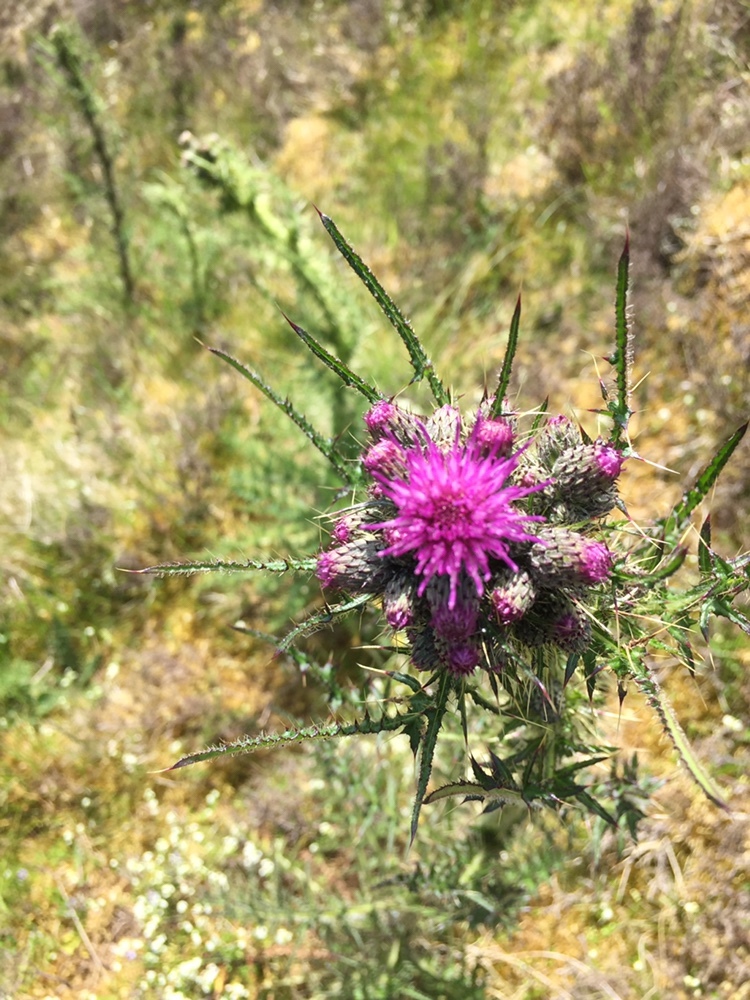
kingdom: Plantae
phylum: Tracheophyta
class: Magnoliopsida
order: Asterales
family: Asteraceae
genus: Cirsium
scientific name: Cirsium palustre
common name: Marsh thistle
